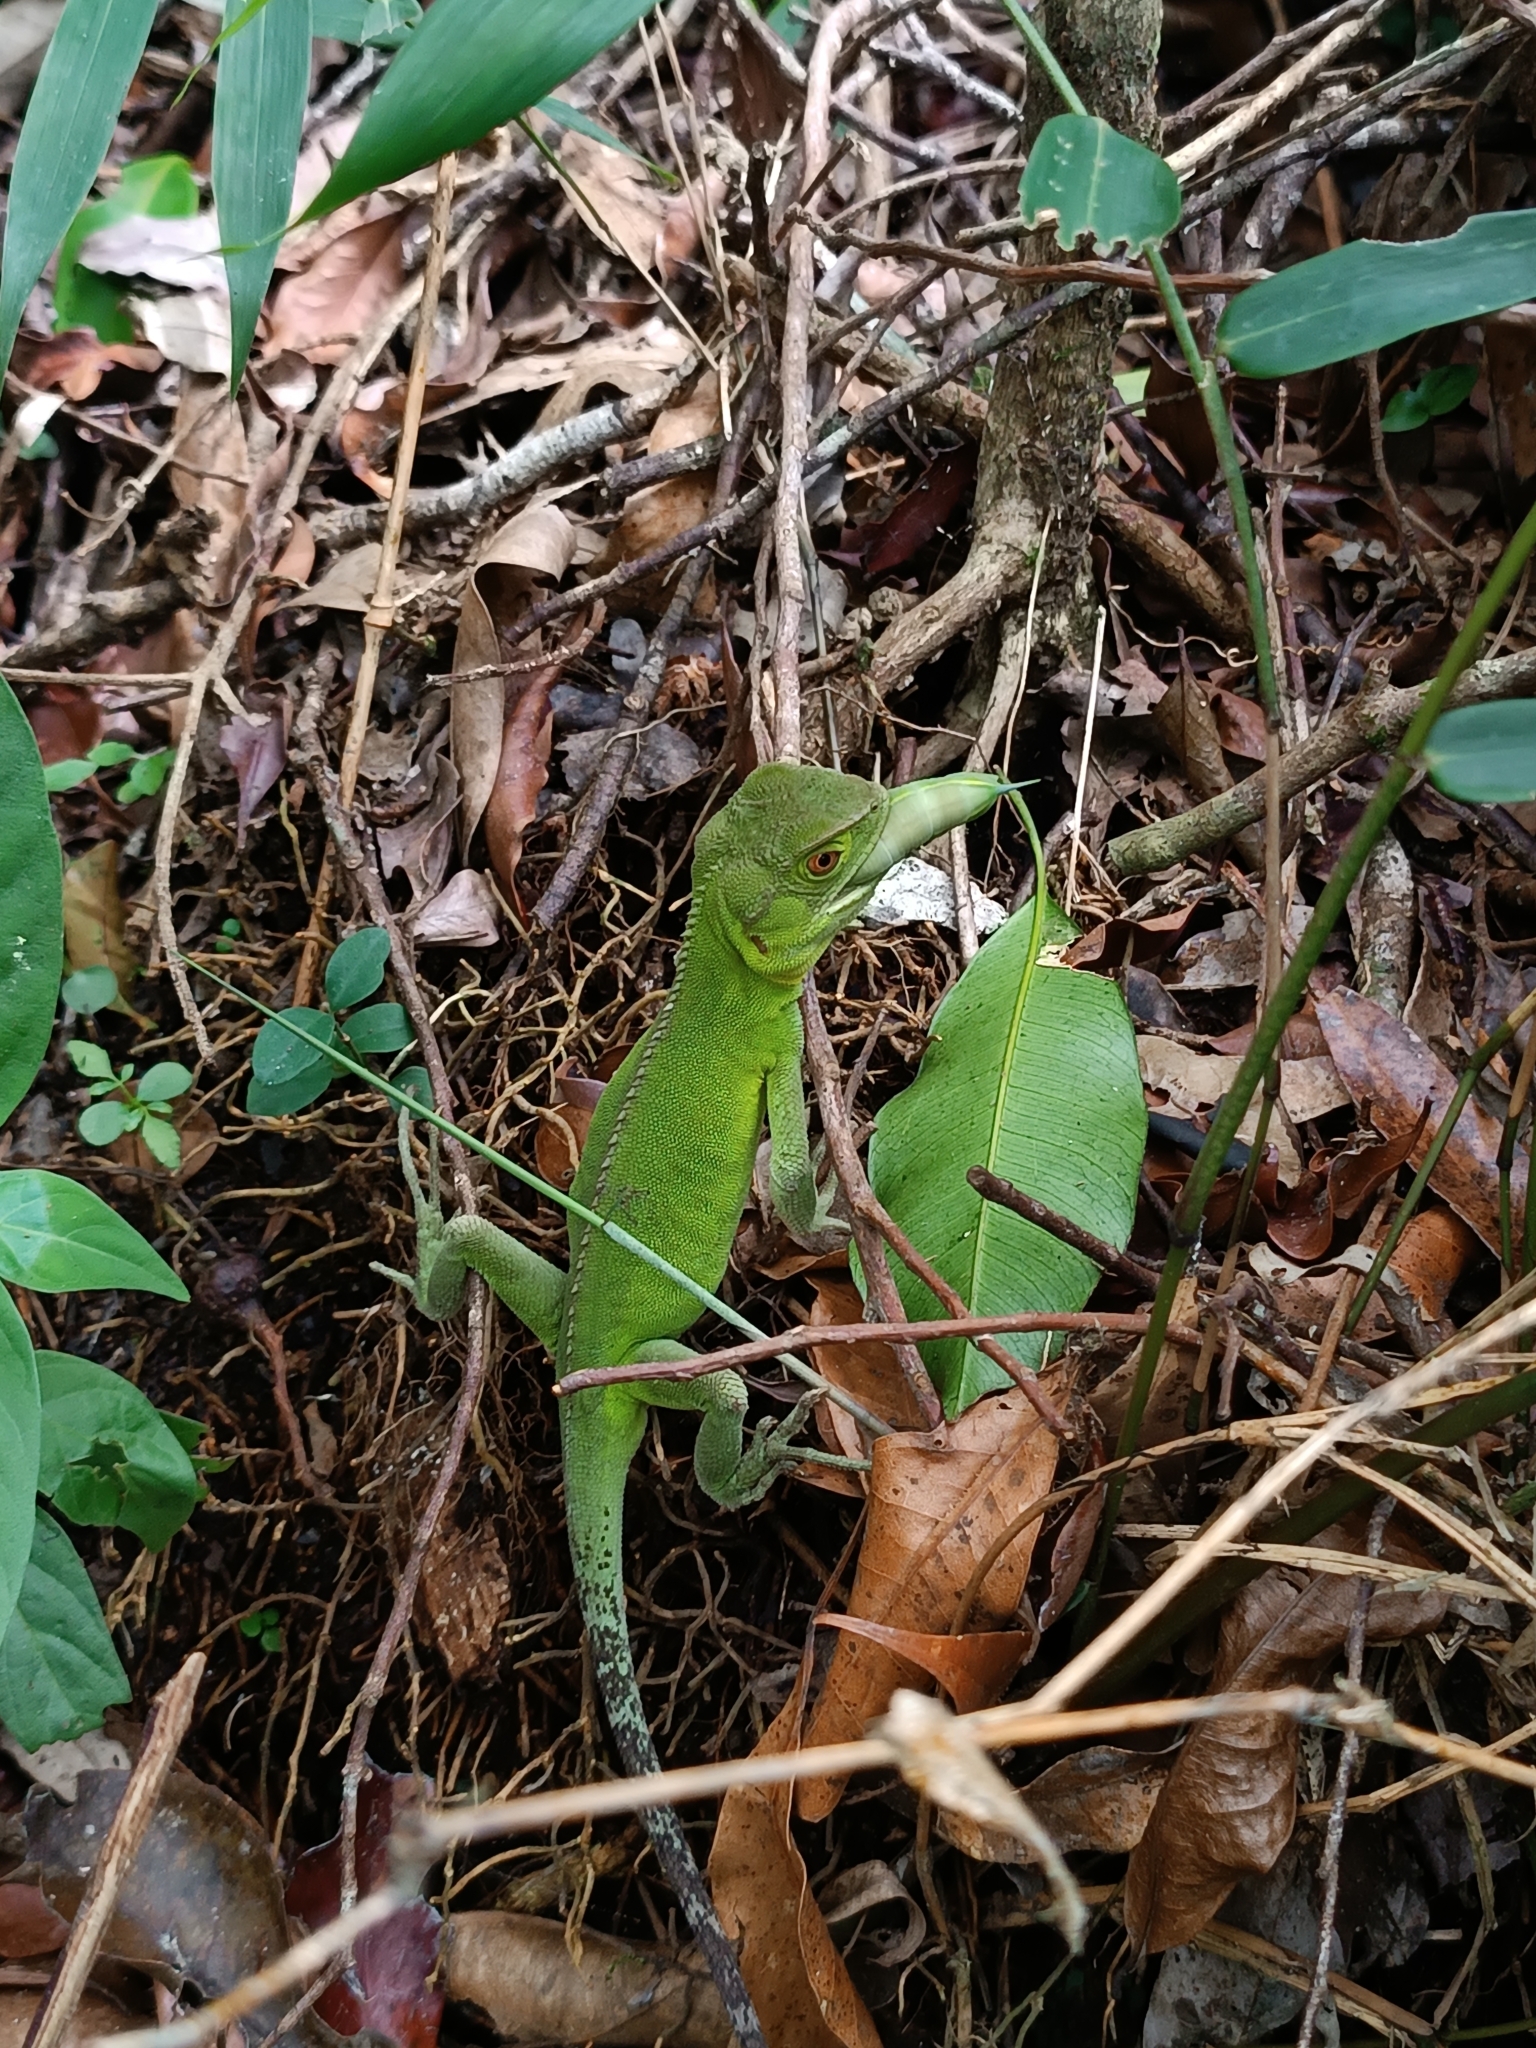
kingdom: Animalia
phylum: Chordata
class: Squamata
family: Leiosauridae
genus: Enyalius
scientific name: Enyalius iheringii
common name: Ihering's fathead anole
